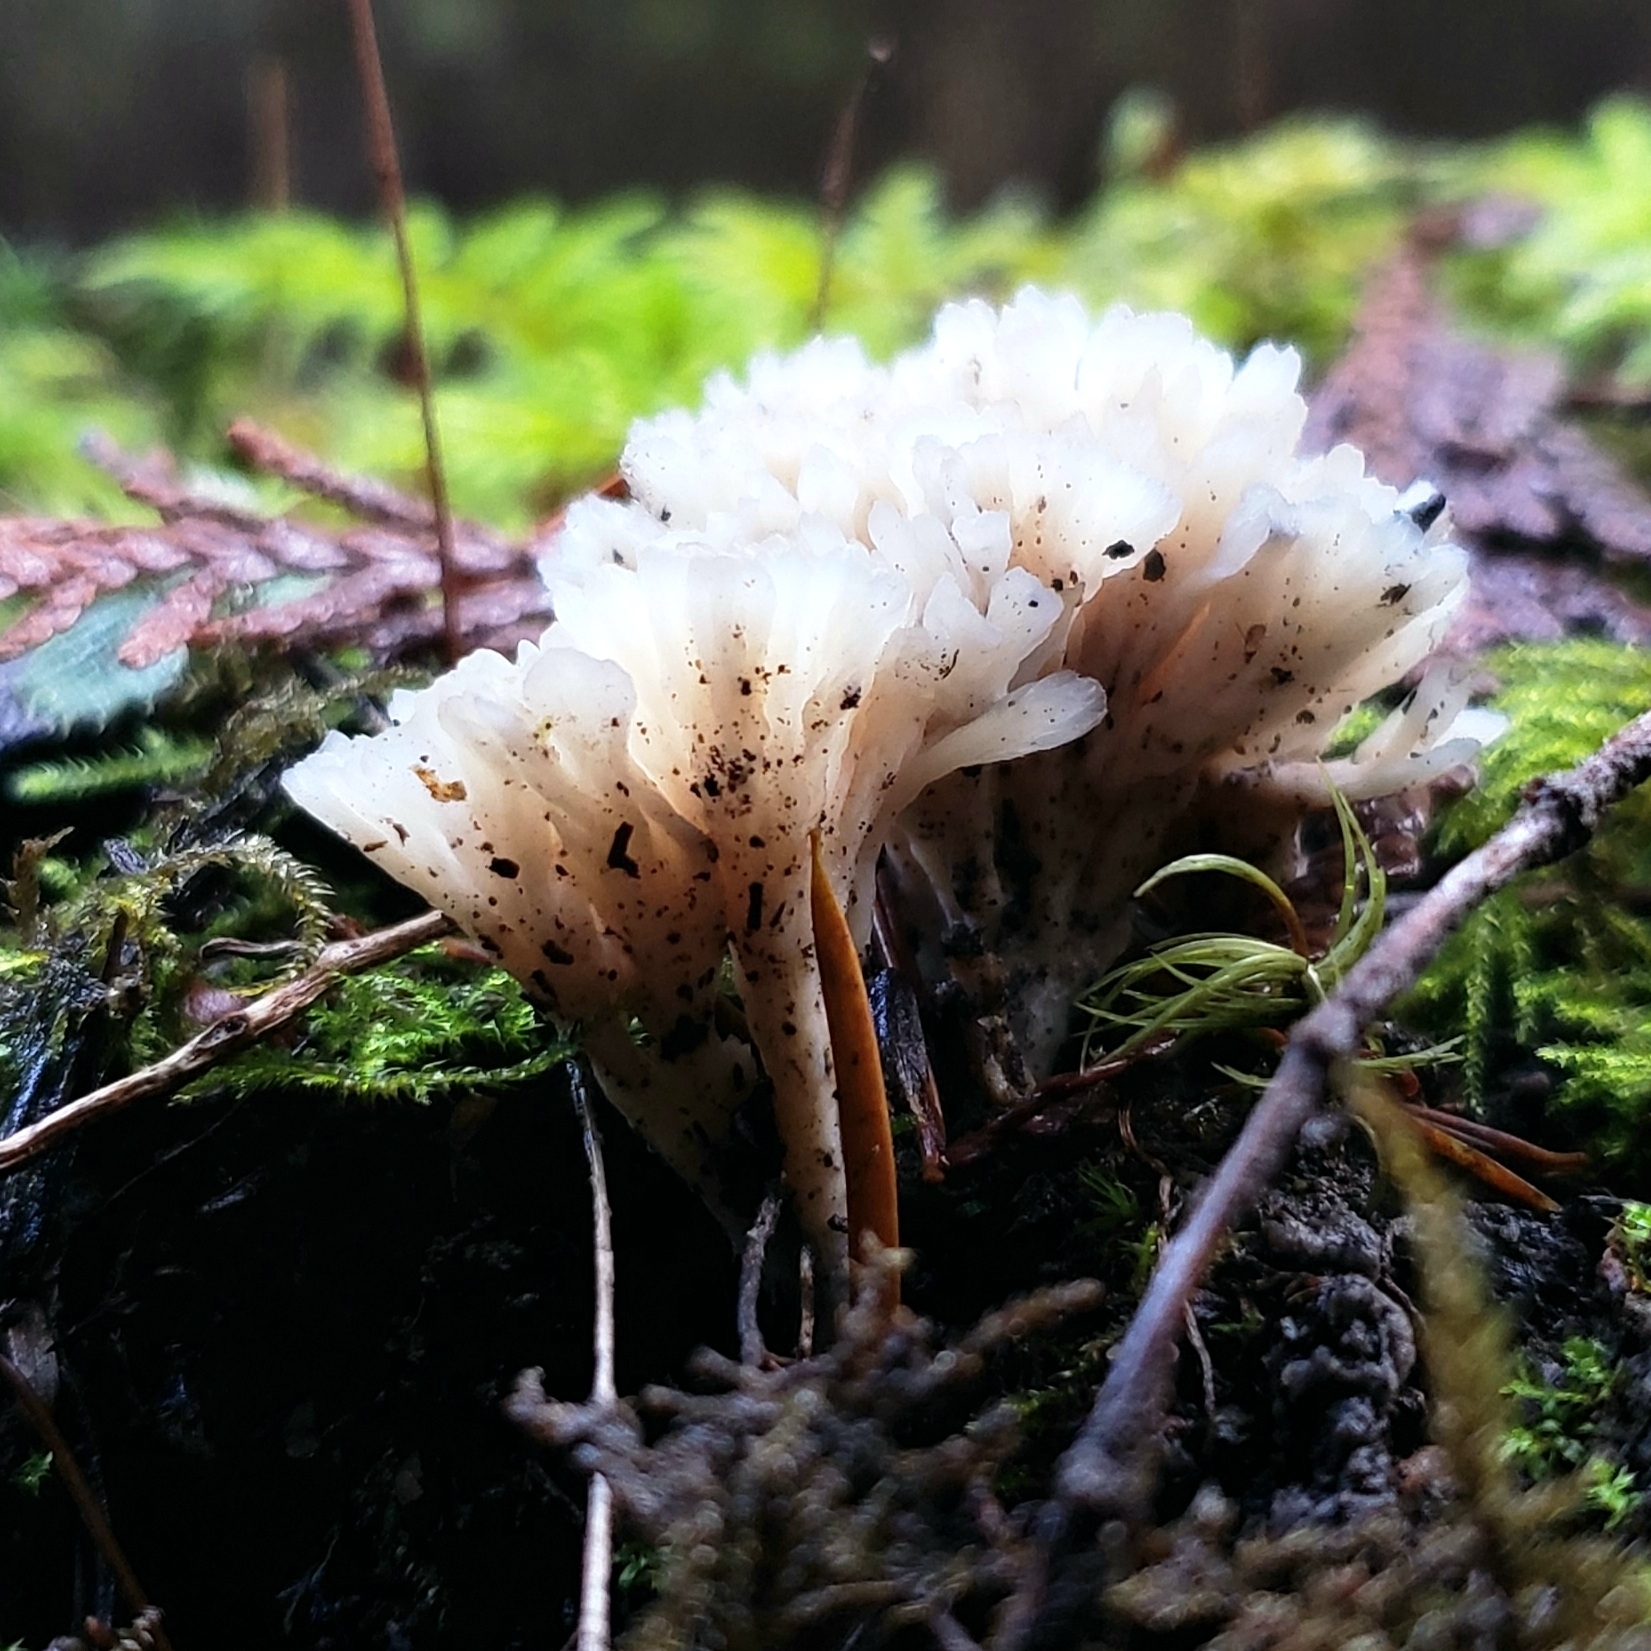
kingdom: Fungi
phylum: Basidiomycota
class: Agaricomycetes
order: Tremellodendropsidales
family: Tremellodendropsidaceae
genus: Tremellodendropsis
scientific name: Tremellodendropsis tuberosa
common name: Ashen coral
